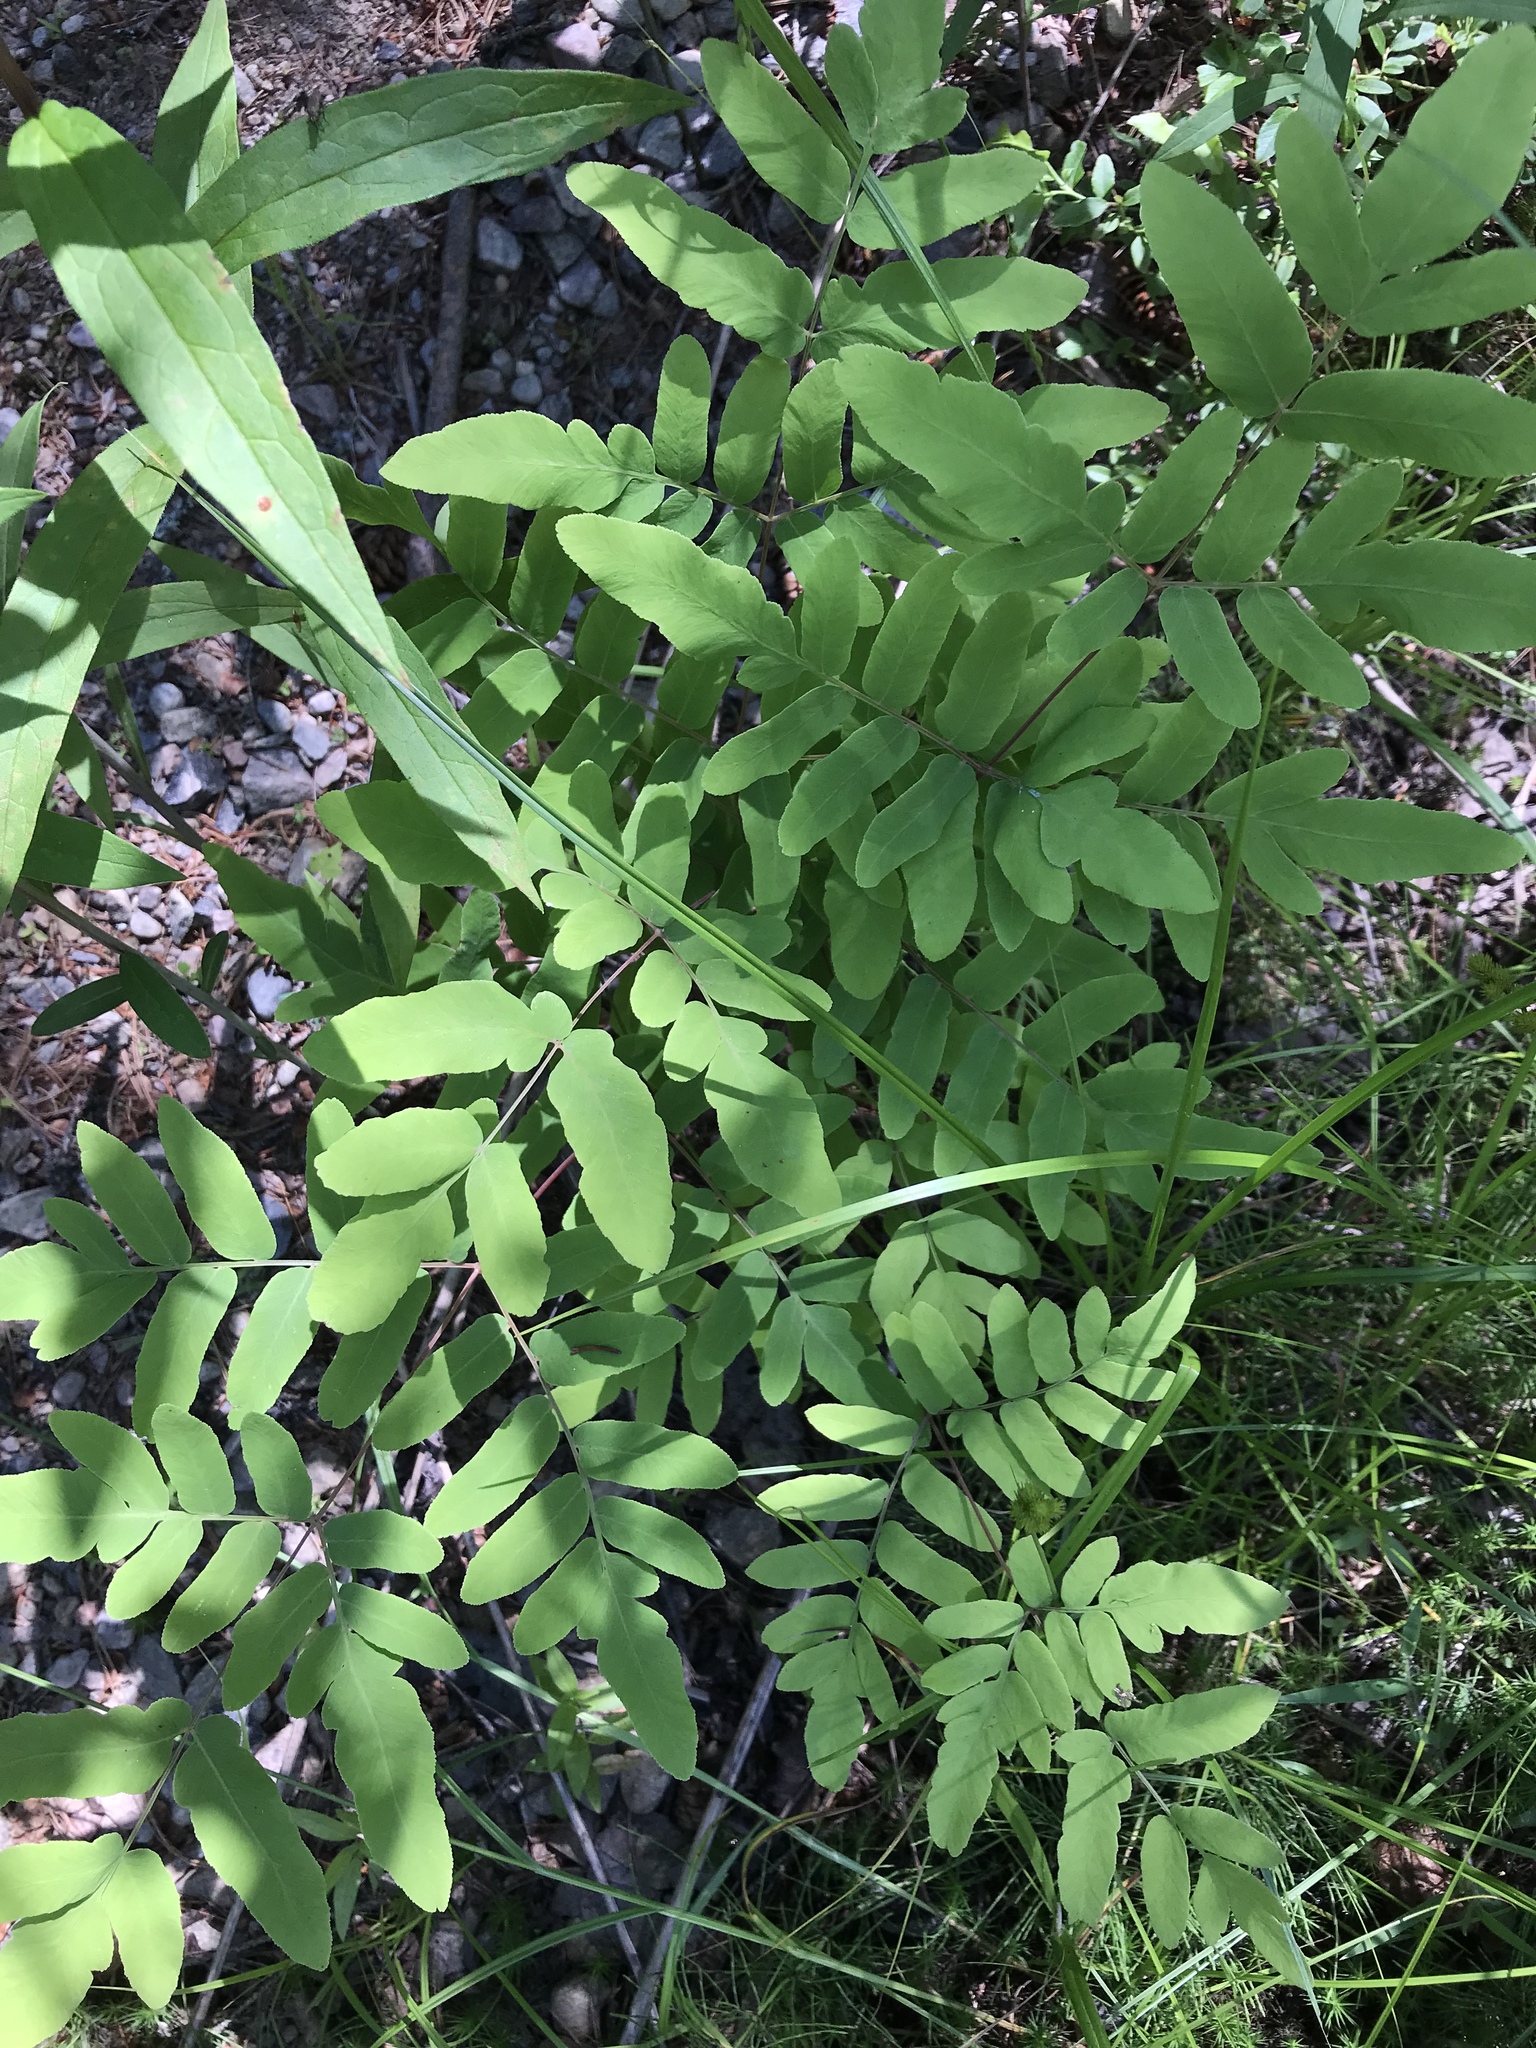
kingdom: Plantae
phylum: Tracheophyta
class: Polypodiopsida
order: Osmundales
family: Osmundaceae
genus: Osmunda
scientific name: Osmunda spectabilis
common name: American royal fern
